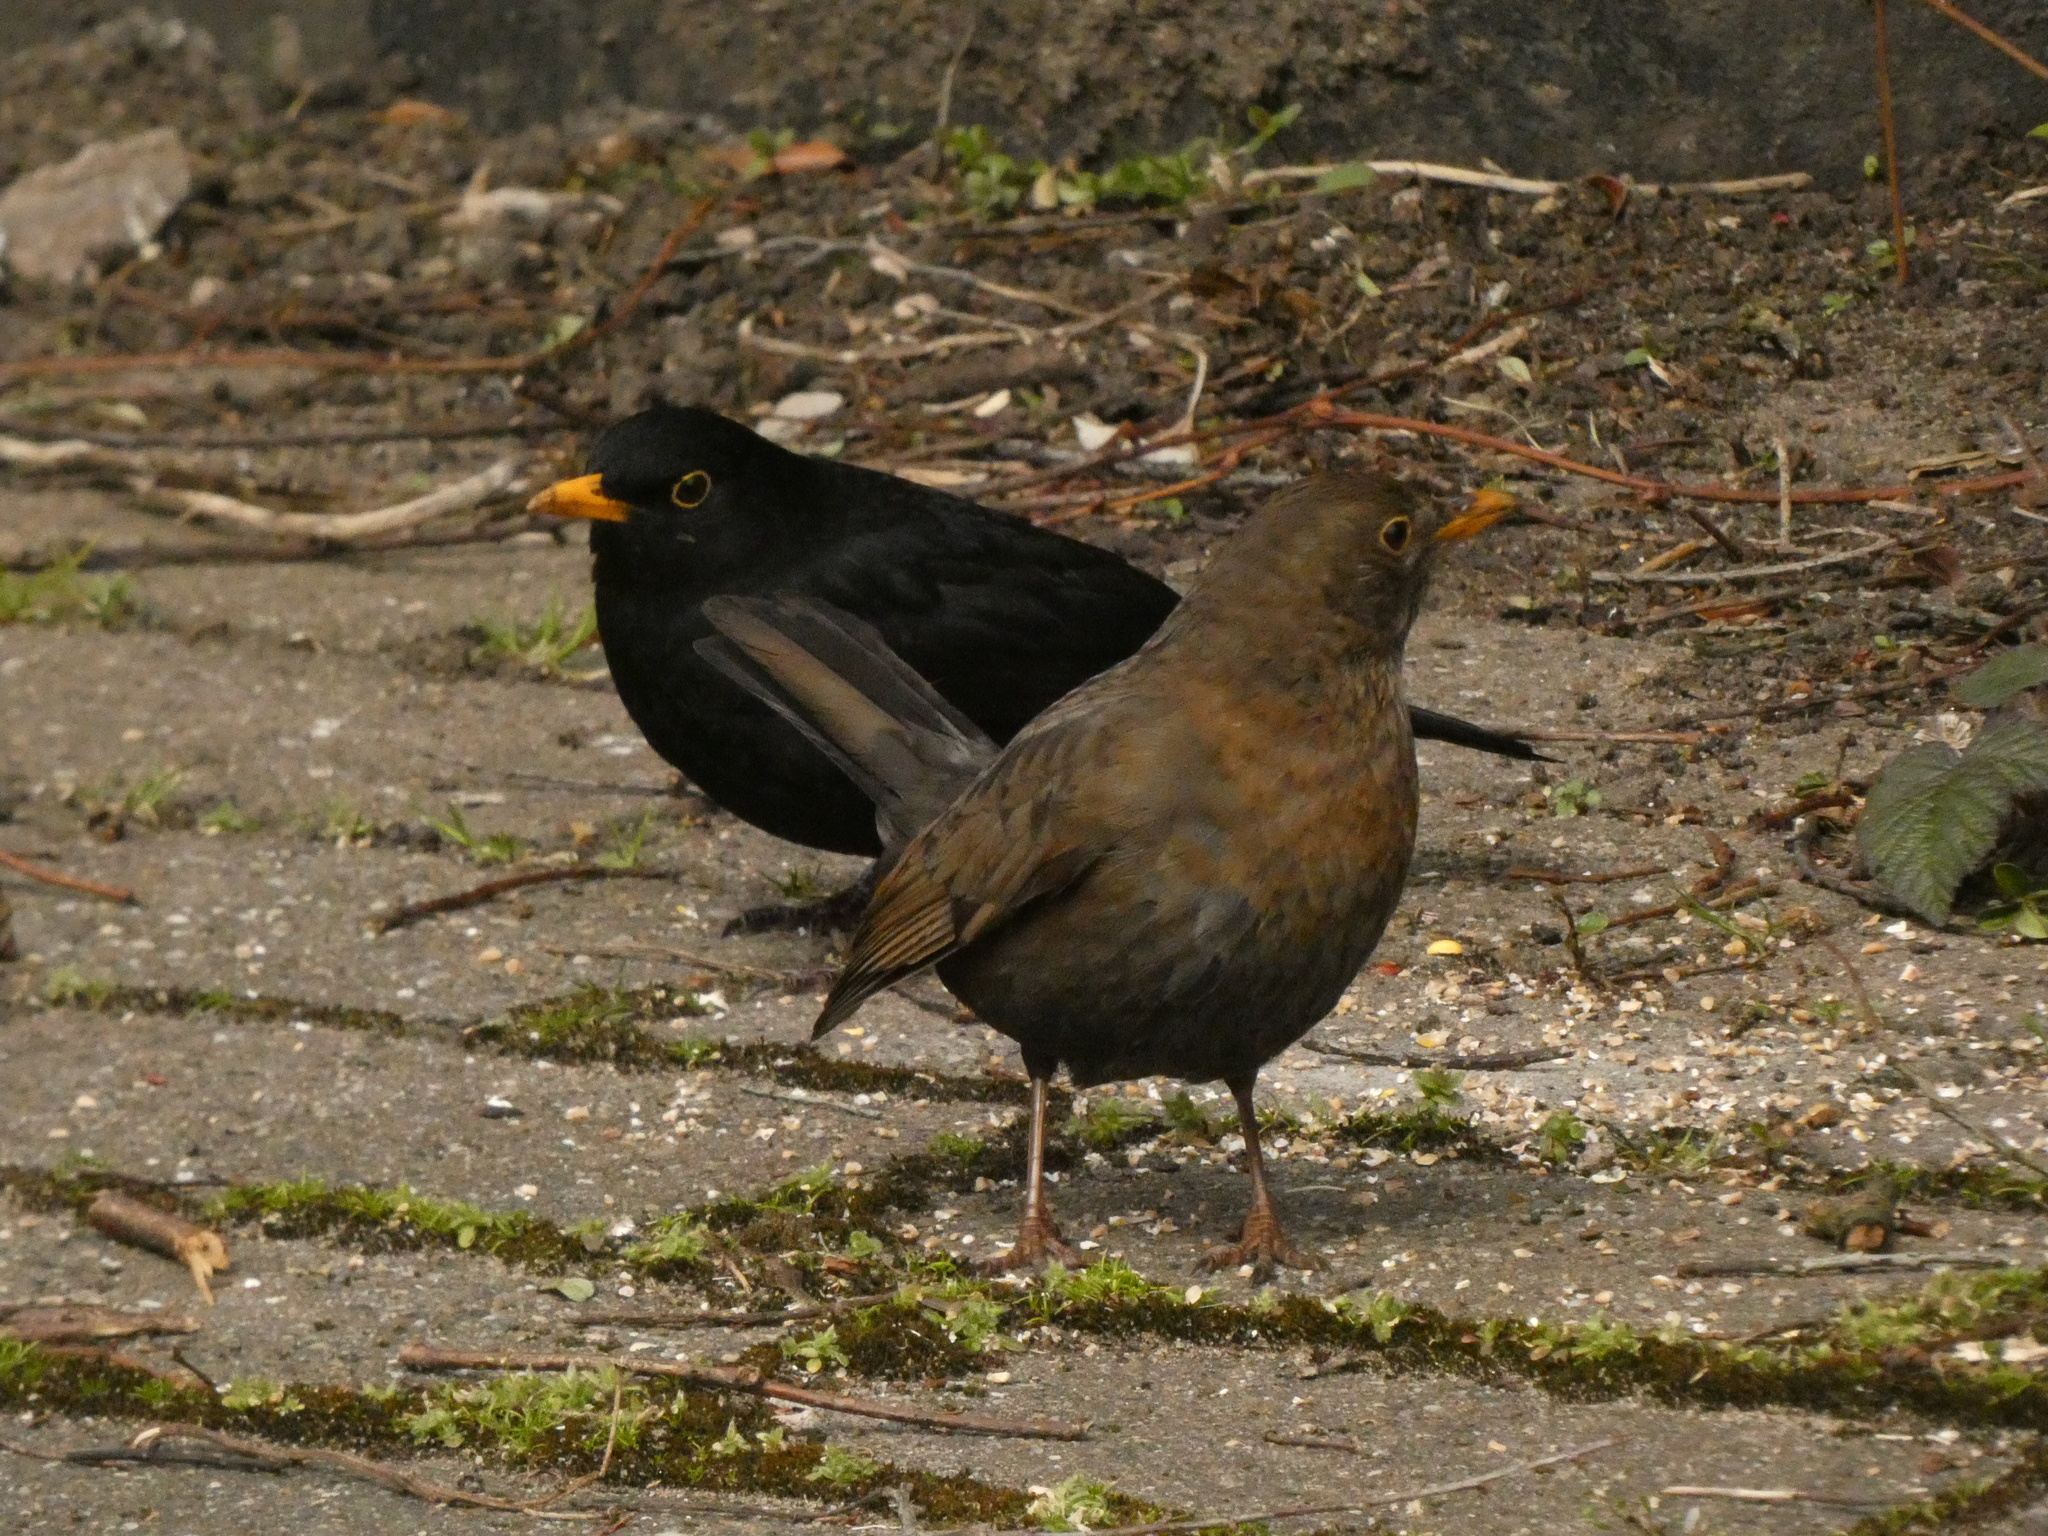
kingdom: Animalia
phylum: Chordata
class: Aves
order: Passeriformes
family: Turdidae
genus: Turdus
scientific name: Turdus merula
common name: Common blackbird
